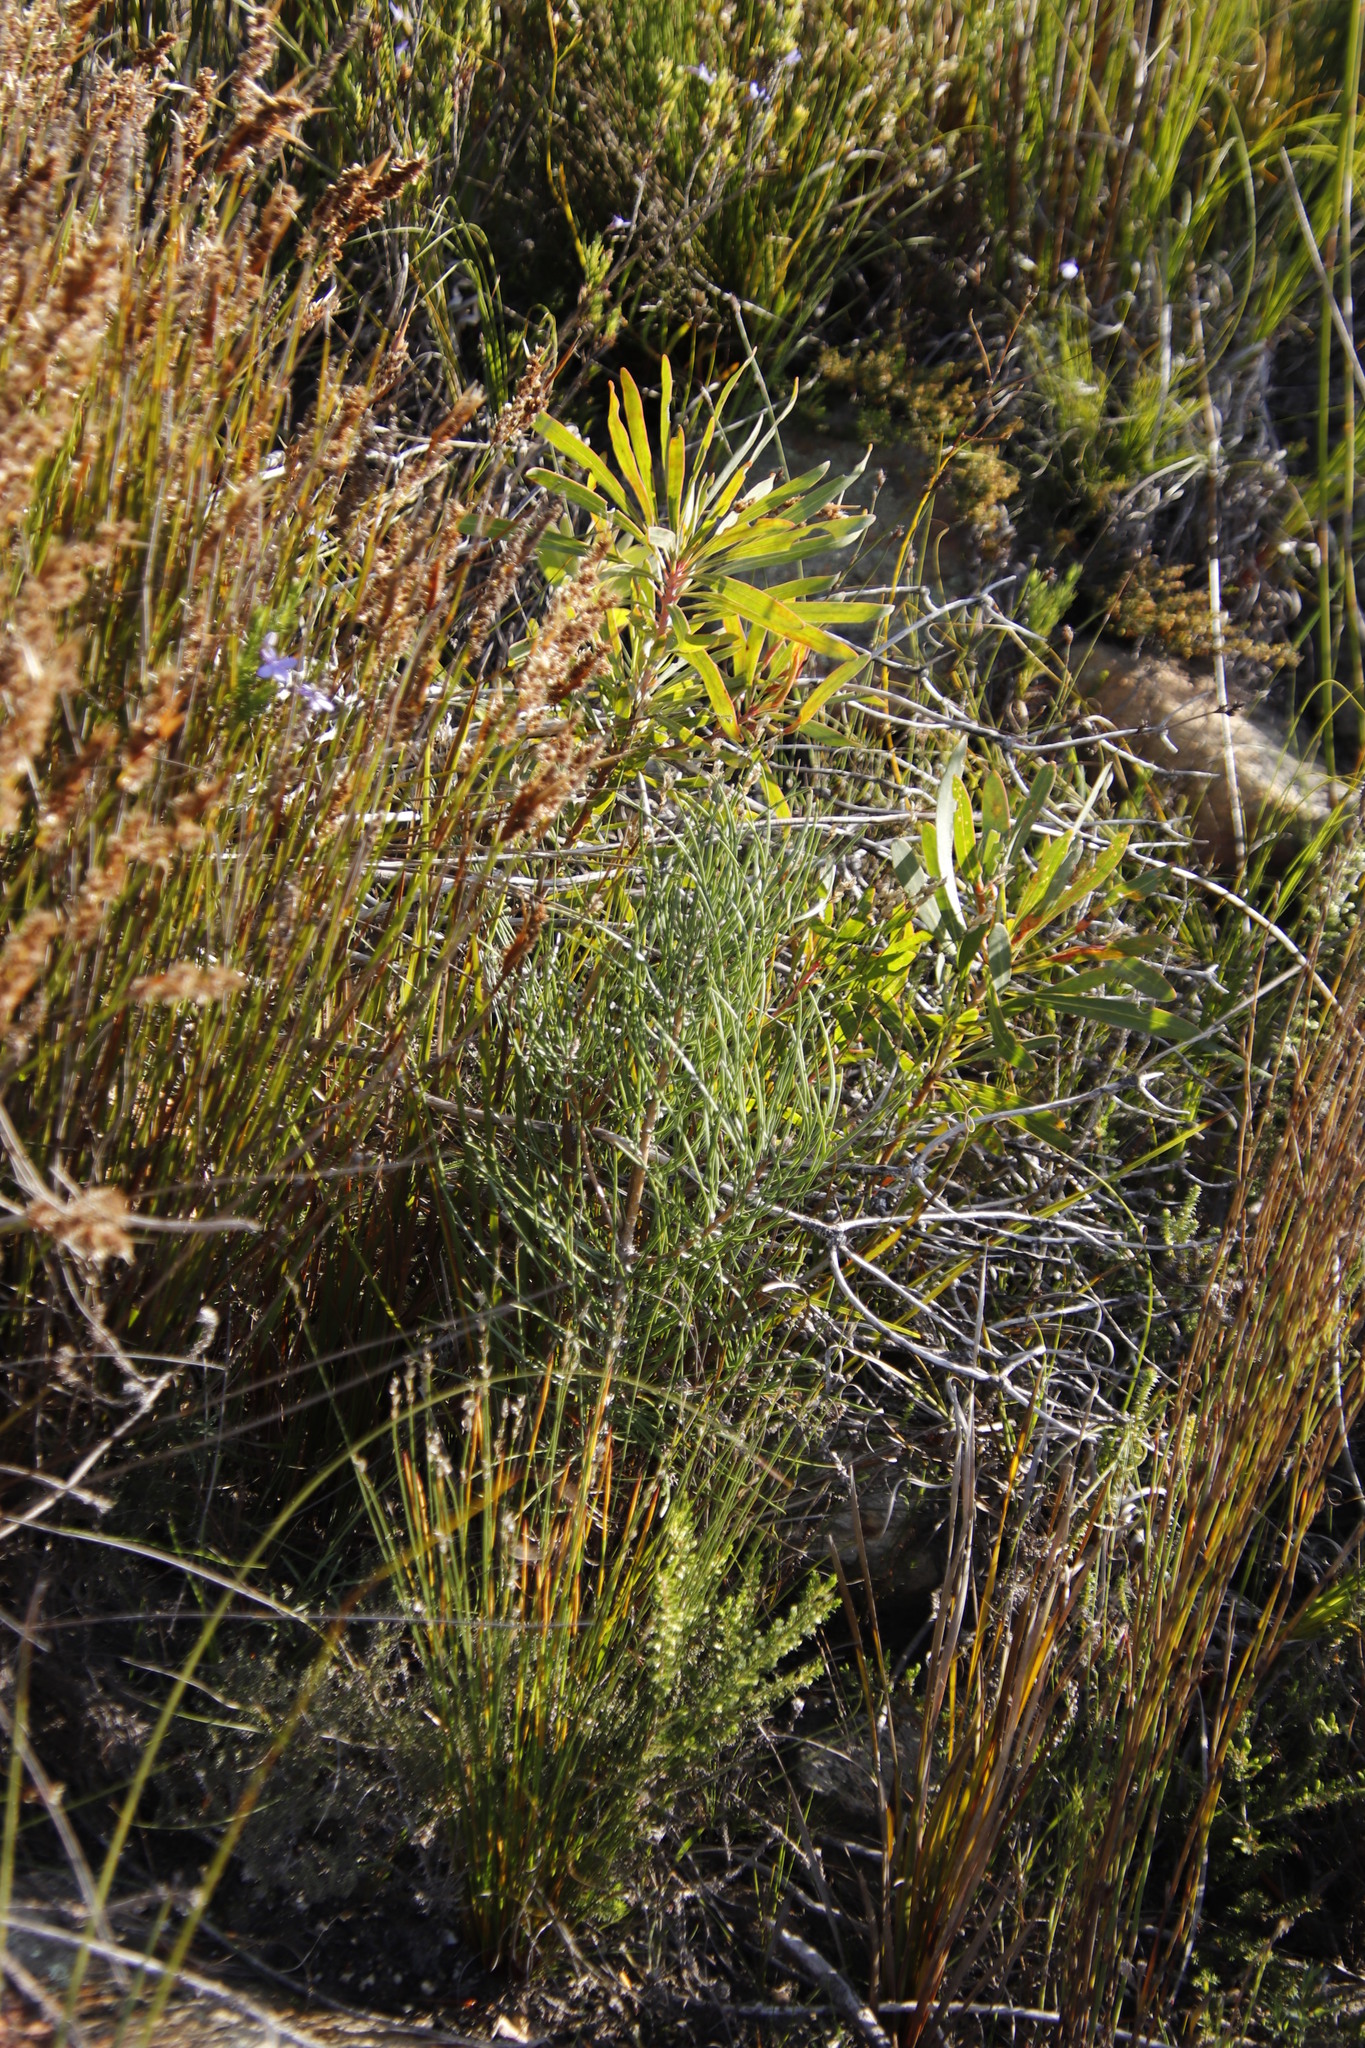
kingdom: Plantae
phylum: Tracheophyta
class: Pinopsida
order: Pinales
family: Pinaceae
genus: Pinus
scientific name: Pinus pinaster
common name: Maritime pine
